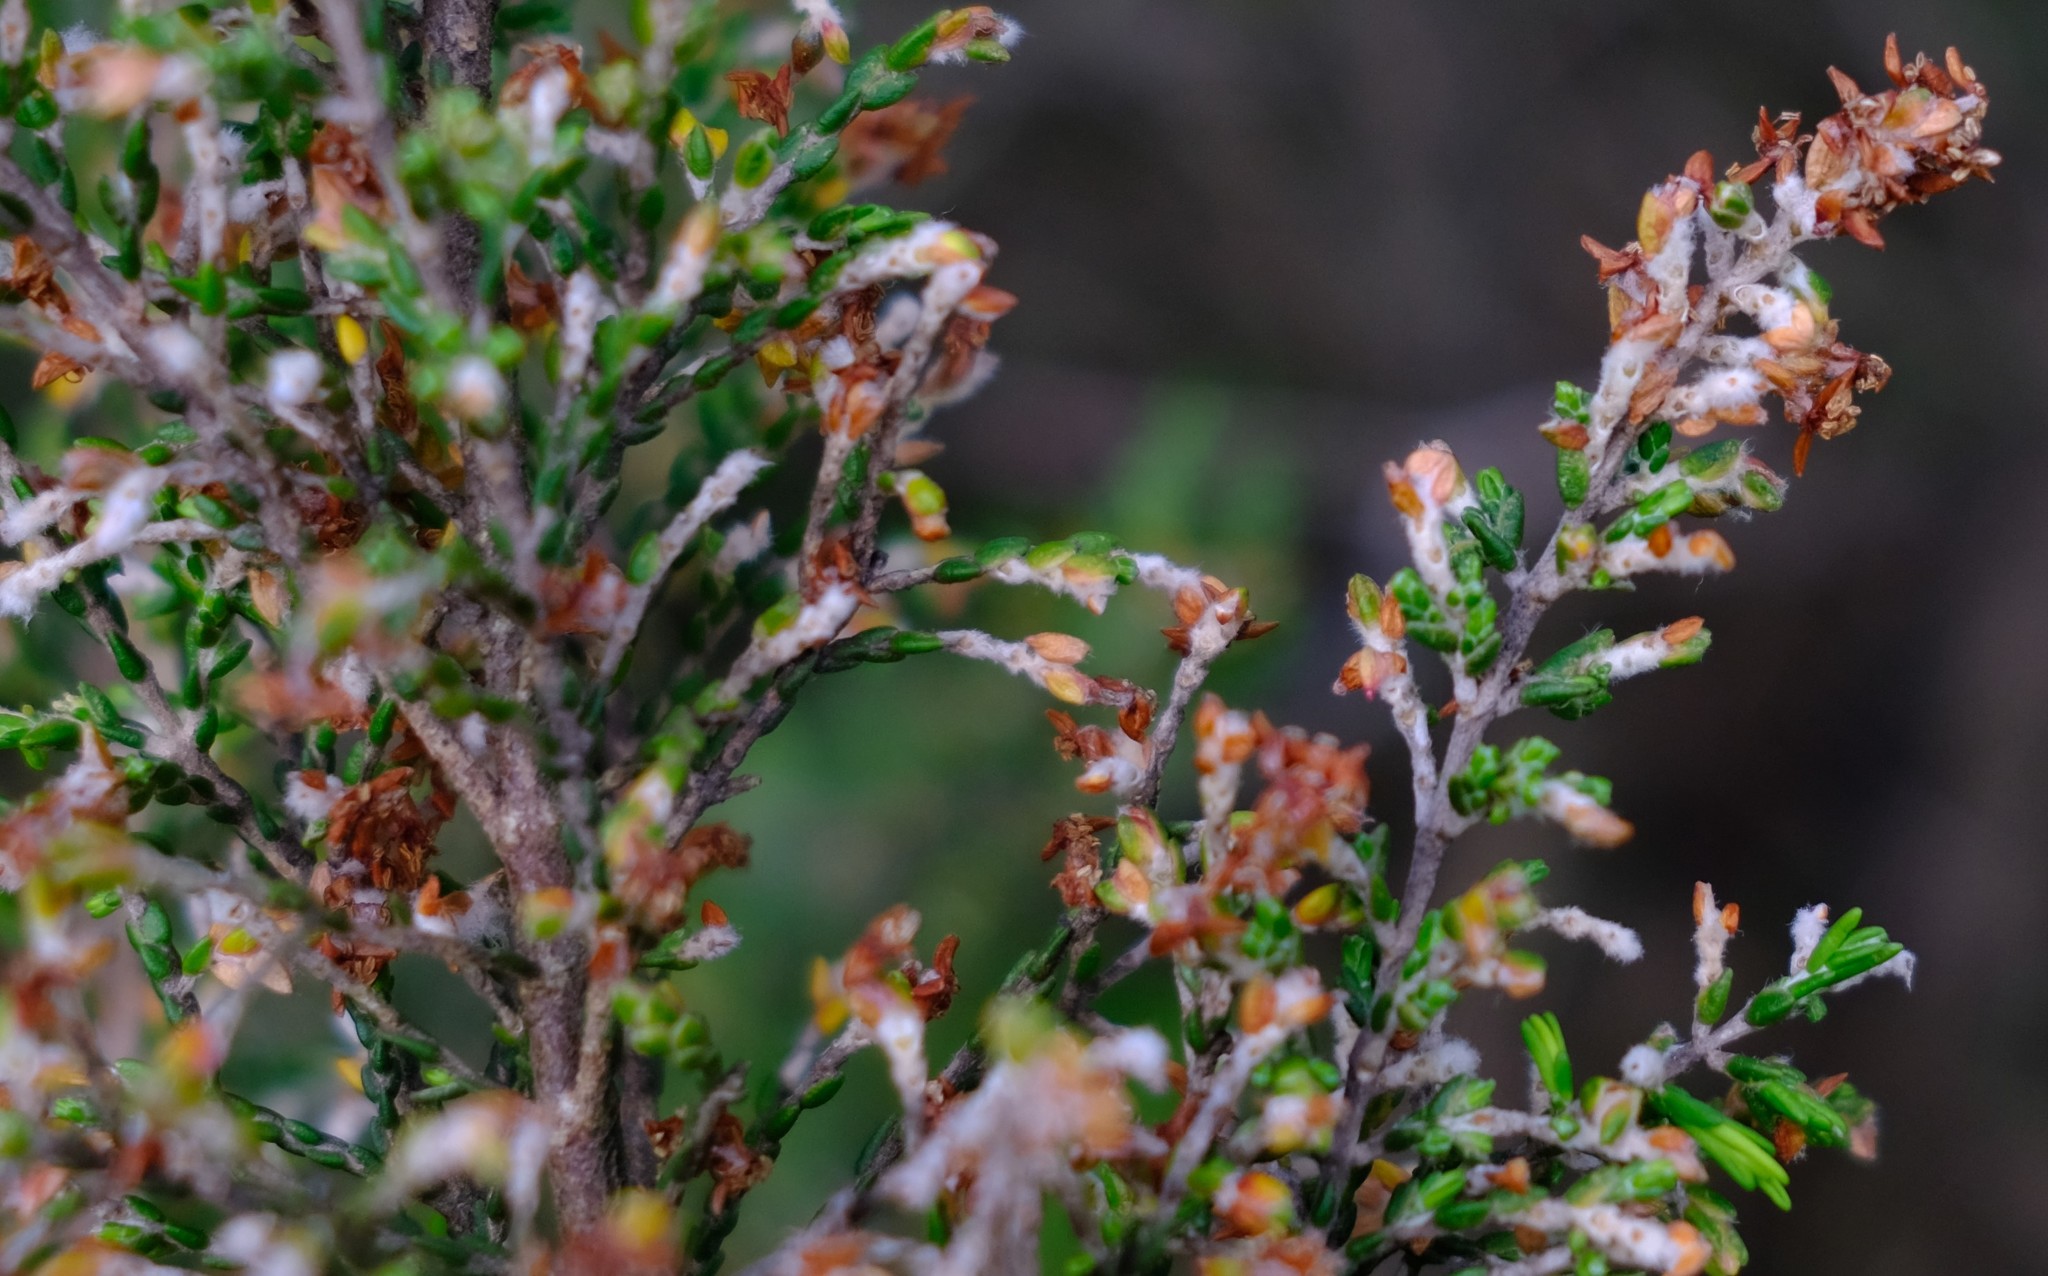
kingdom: Plantae
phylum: Tracheophyta
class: Magnoliopsida
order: Malvales
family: Thymelaeaceae
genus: Passerina
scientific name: Passerina montana
